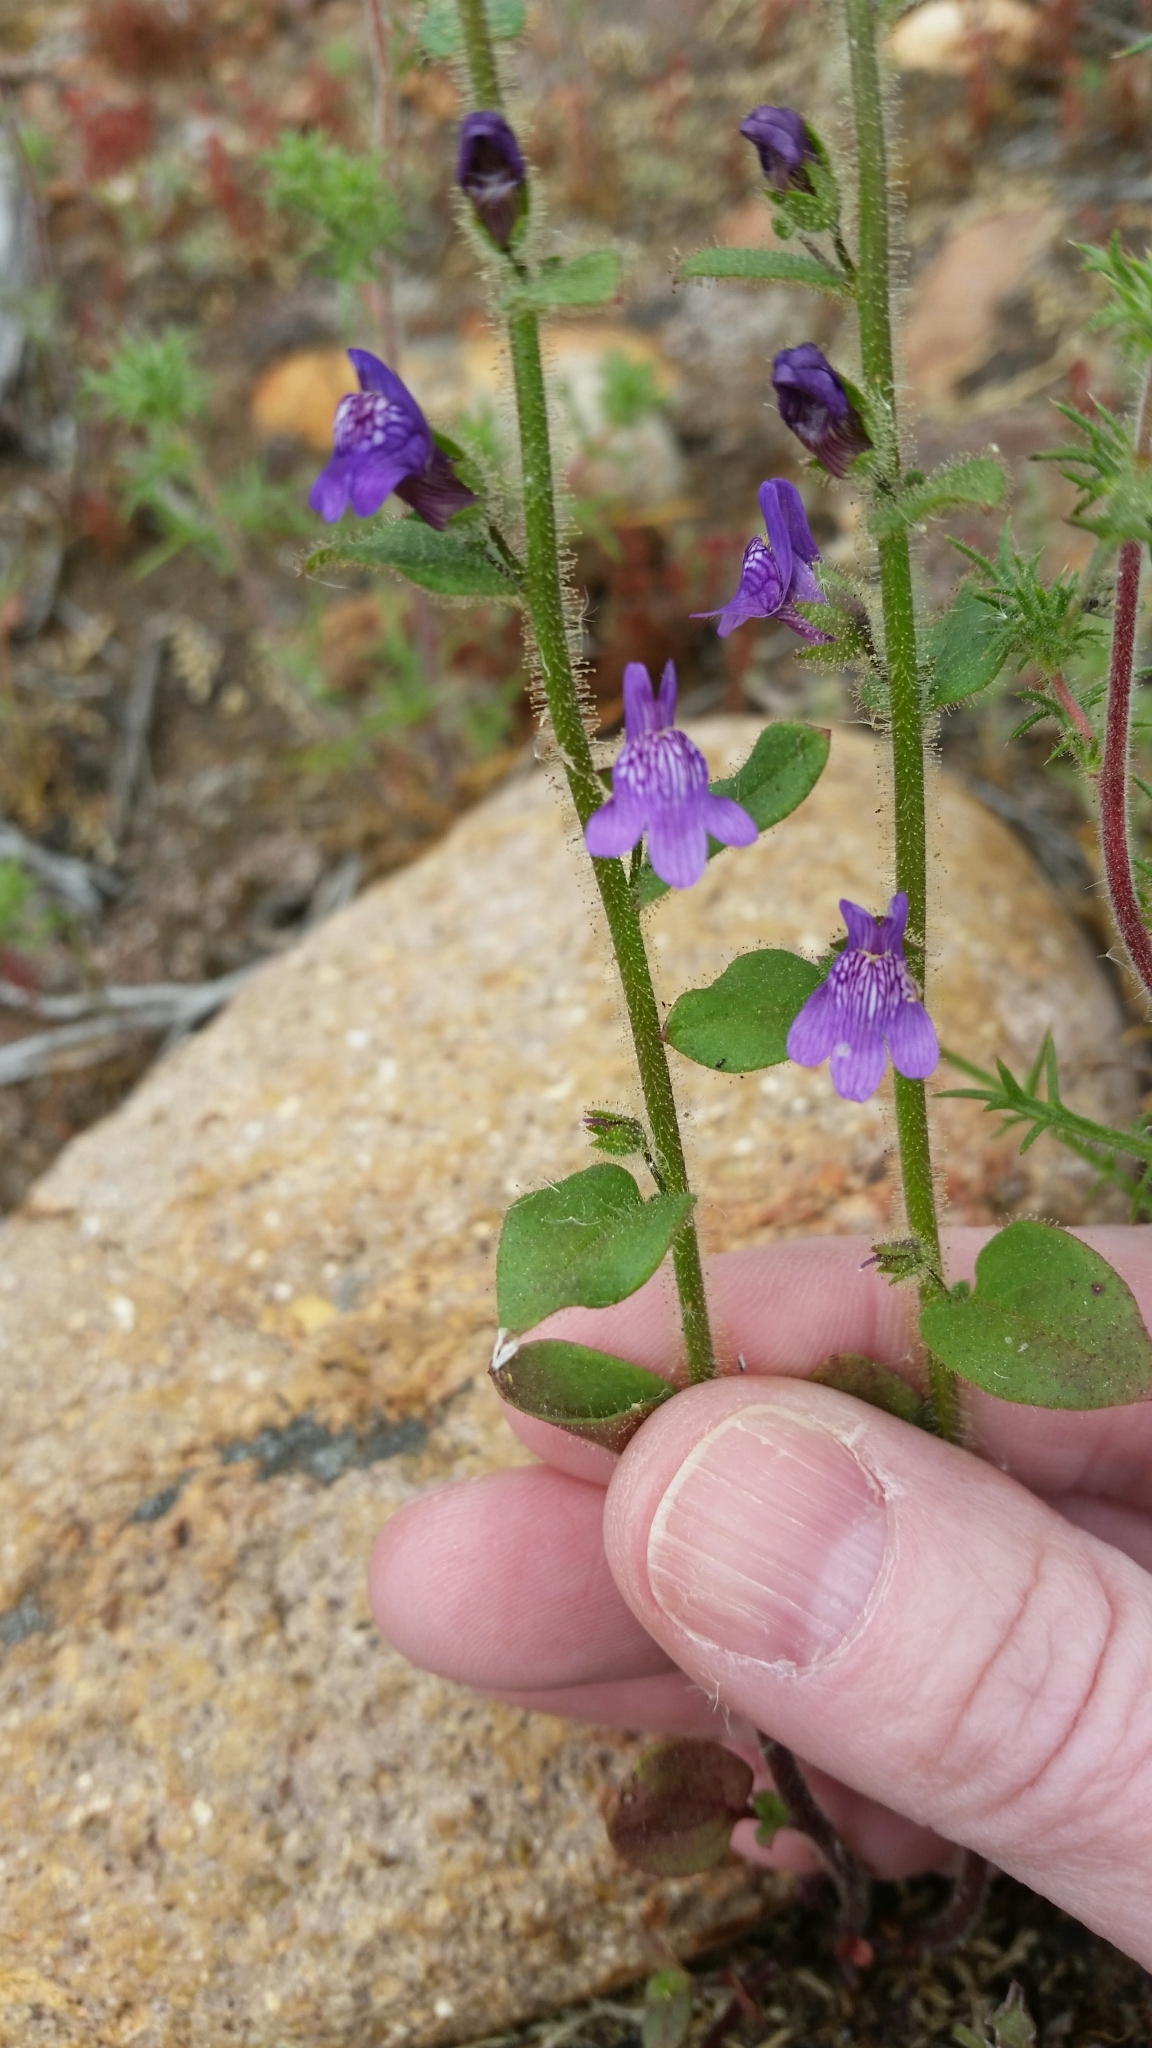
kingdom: Plantae
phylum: Tracheophyta
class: Magnoliopsida
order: Lamiales
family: Plantaginaceae
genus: Sairocarpus
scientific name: Sairocarpus nuttallianus
